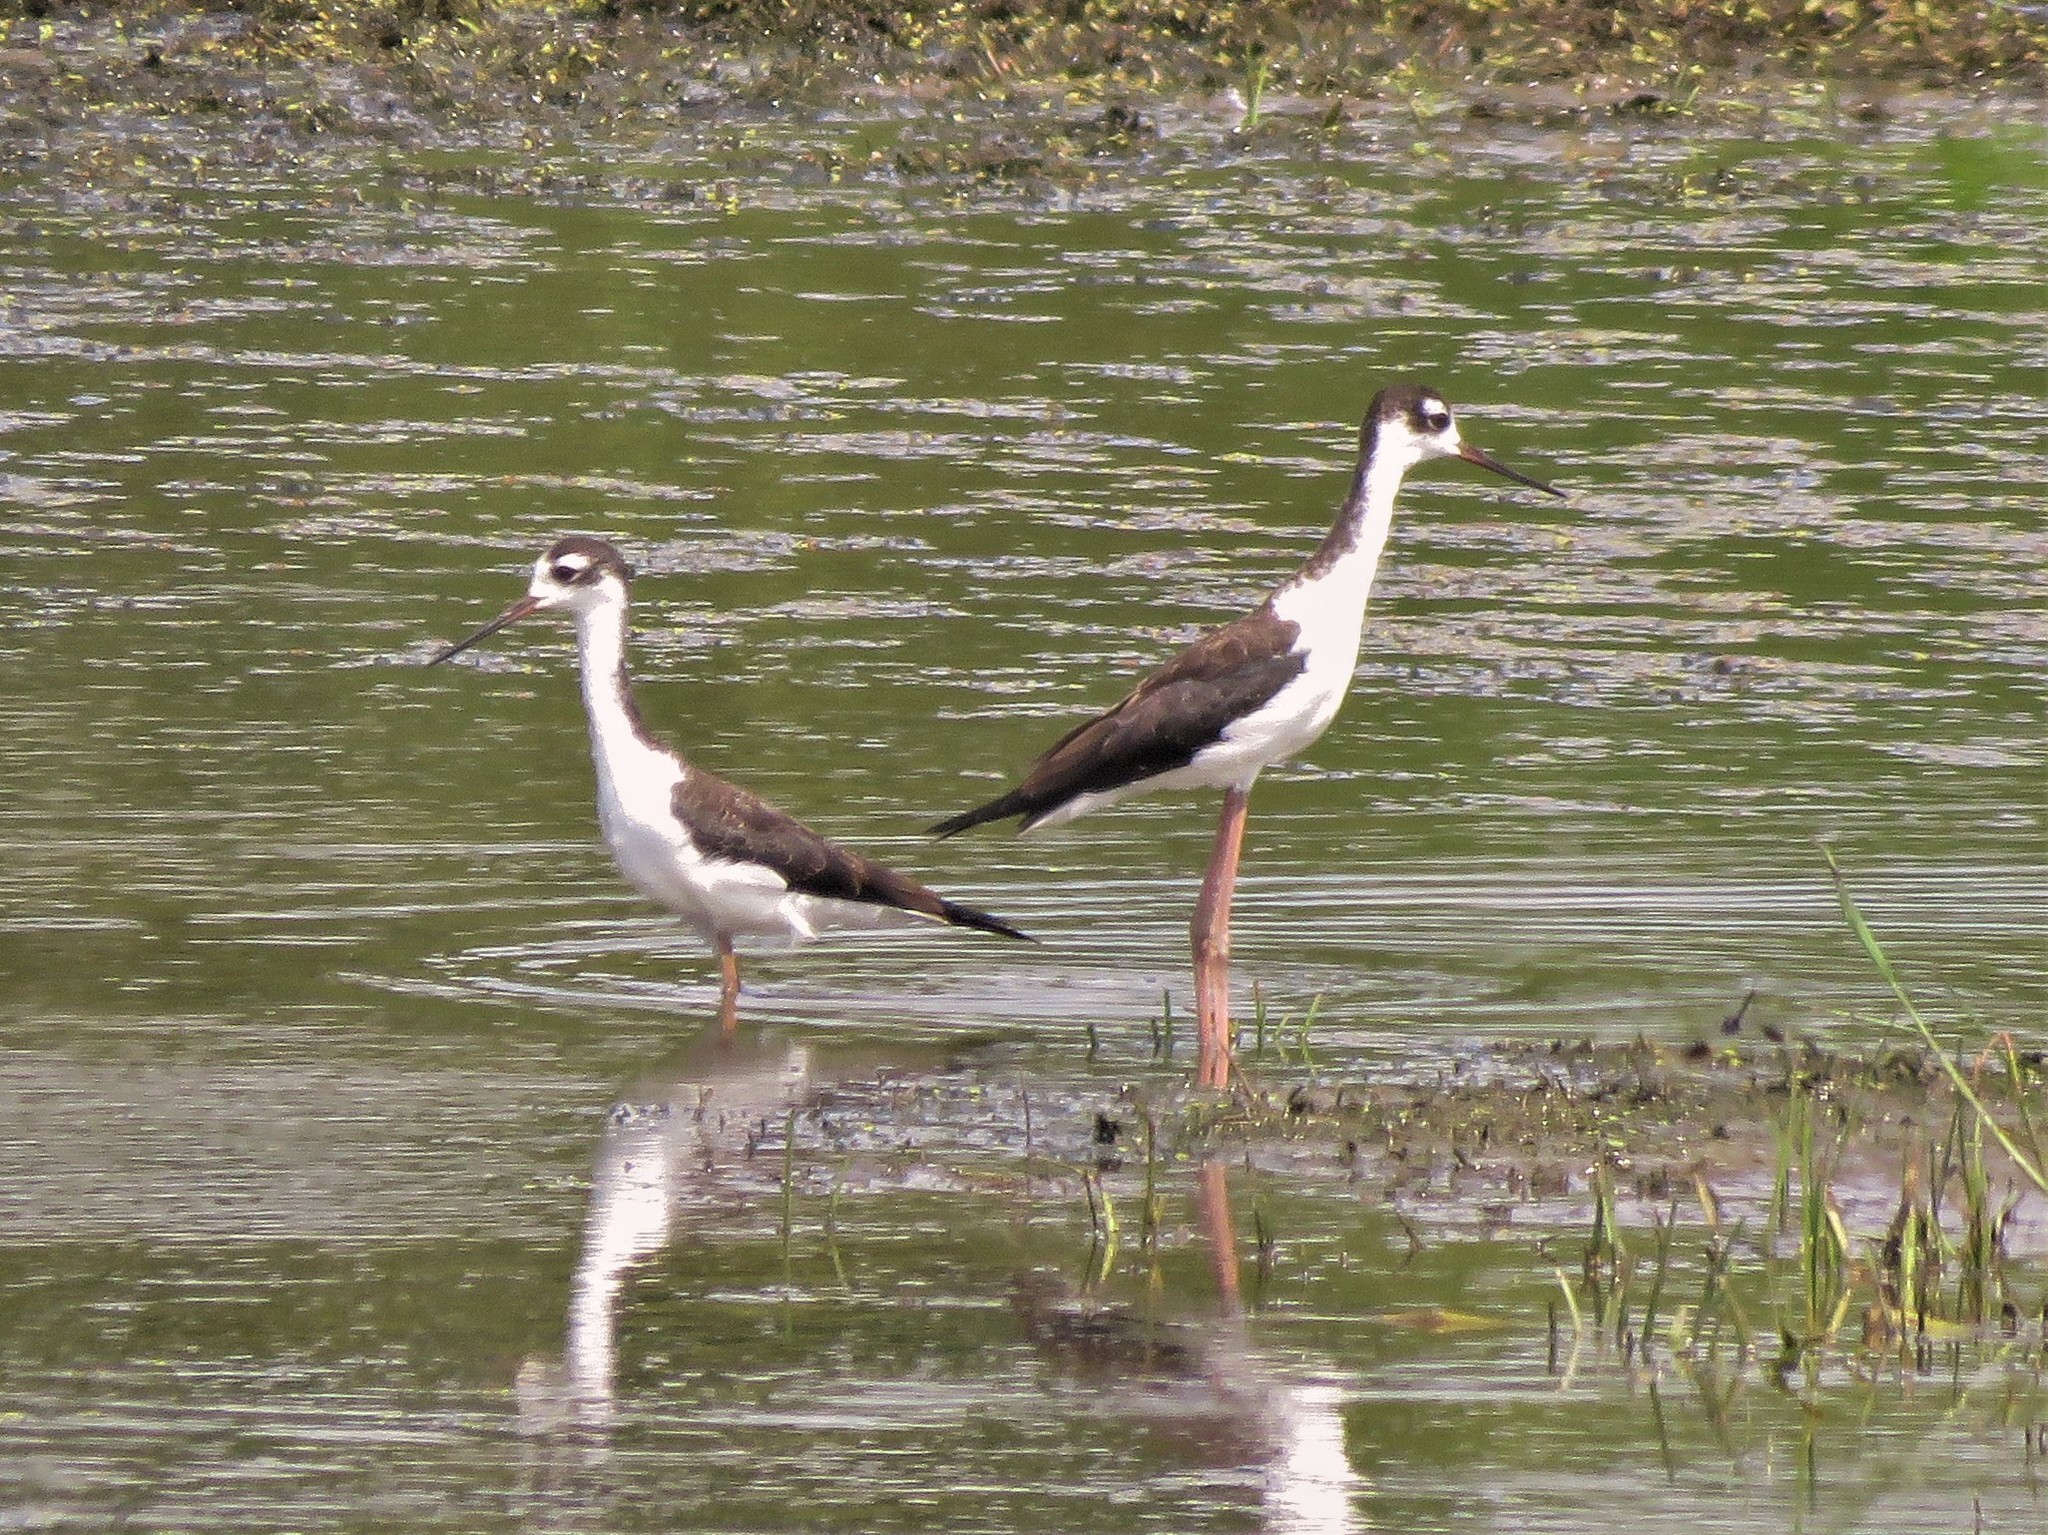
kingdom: Animalia
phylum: Chordata
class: Aves
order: Charadriiformes
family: Recurvirostridae
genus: Himantopus
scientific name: Himantopus mexicanus
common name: Black-necked stilt
